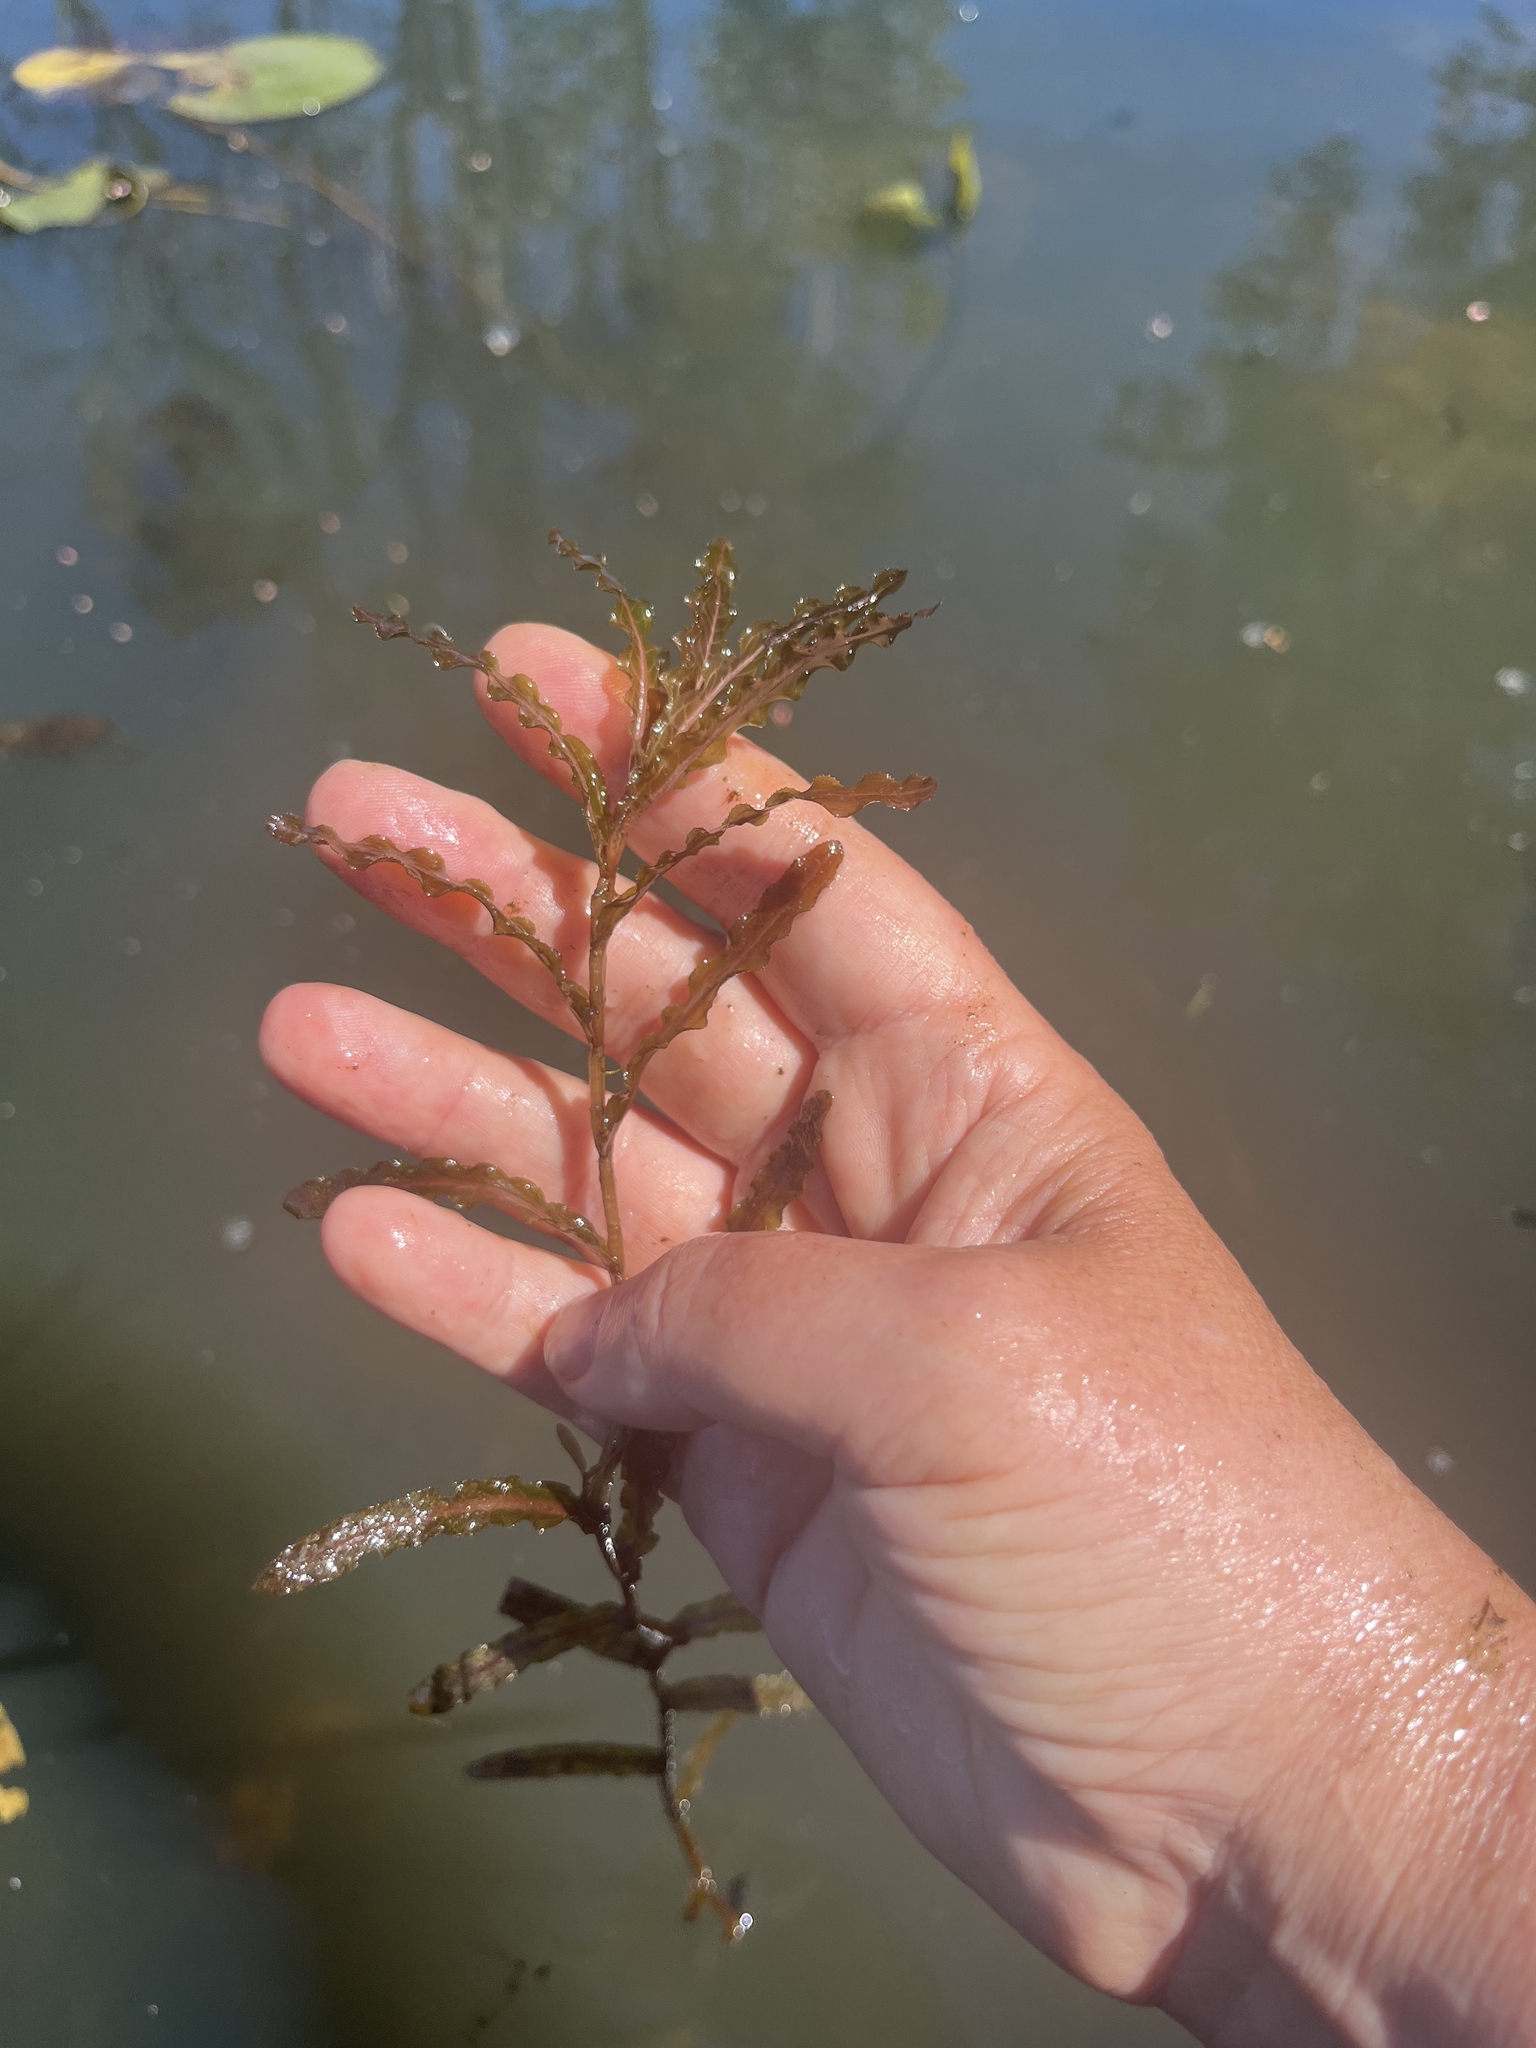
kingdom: Plantae
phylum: Tracheophyta
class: Liliopsida
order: Alismatales
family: Potamogetonaceae
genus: Potamogeton
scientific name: Potamogeton crispus
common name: Curled pondweed
